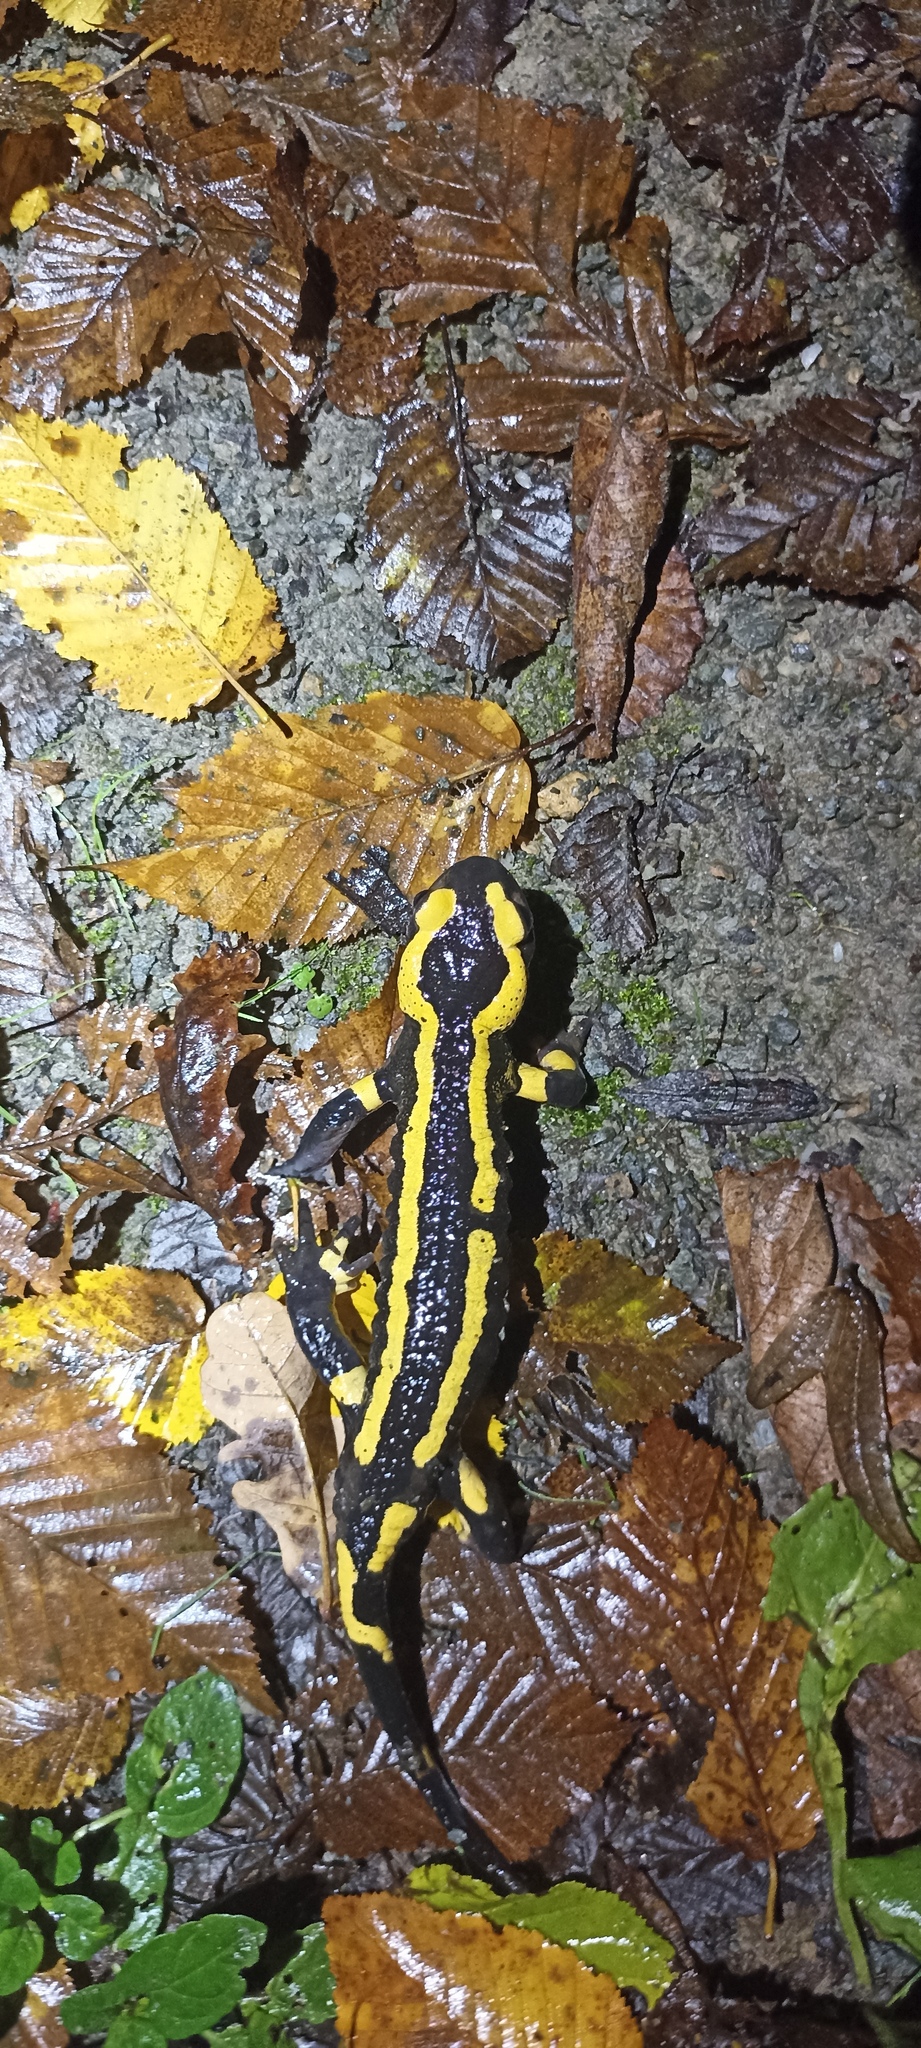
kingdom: Animalia
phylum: Chordata
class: Amphibia
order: Caudata
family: Salamandridae
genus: Salamandra
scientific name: Salamandra salamandra
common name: Fire salamander
